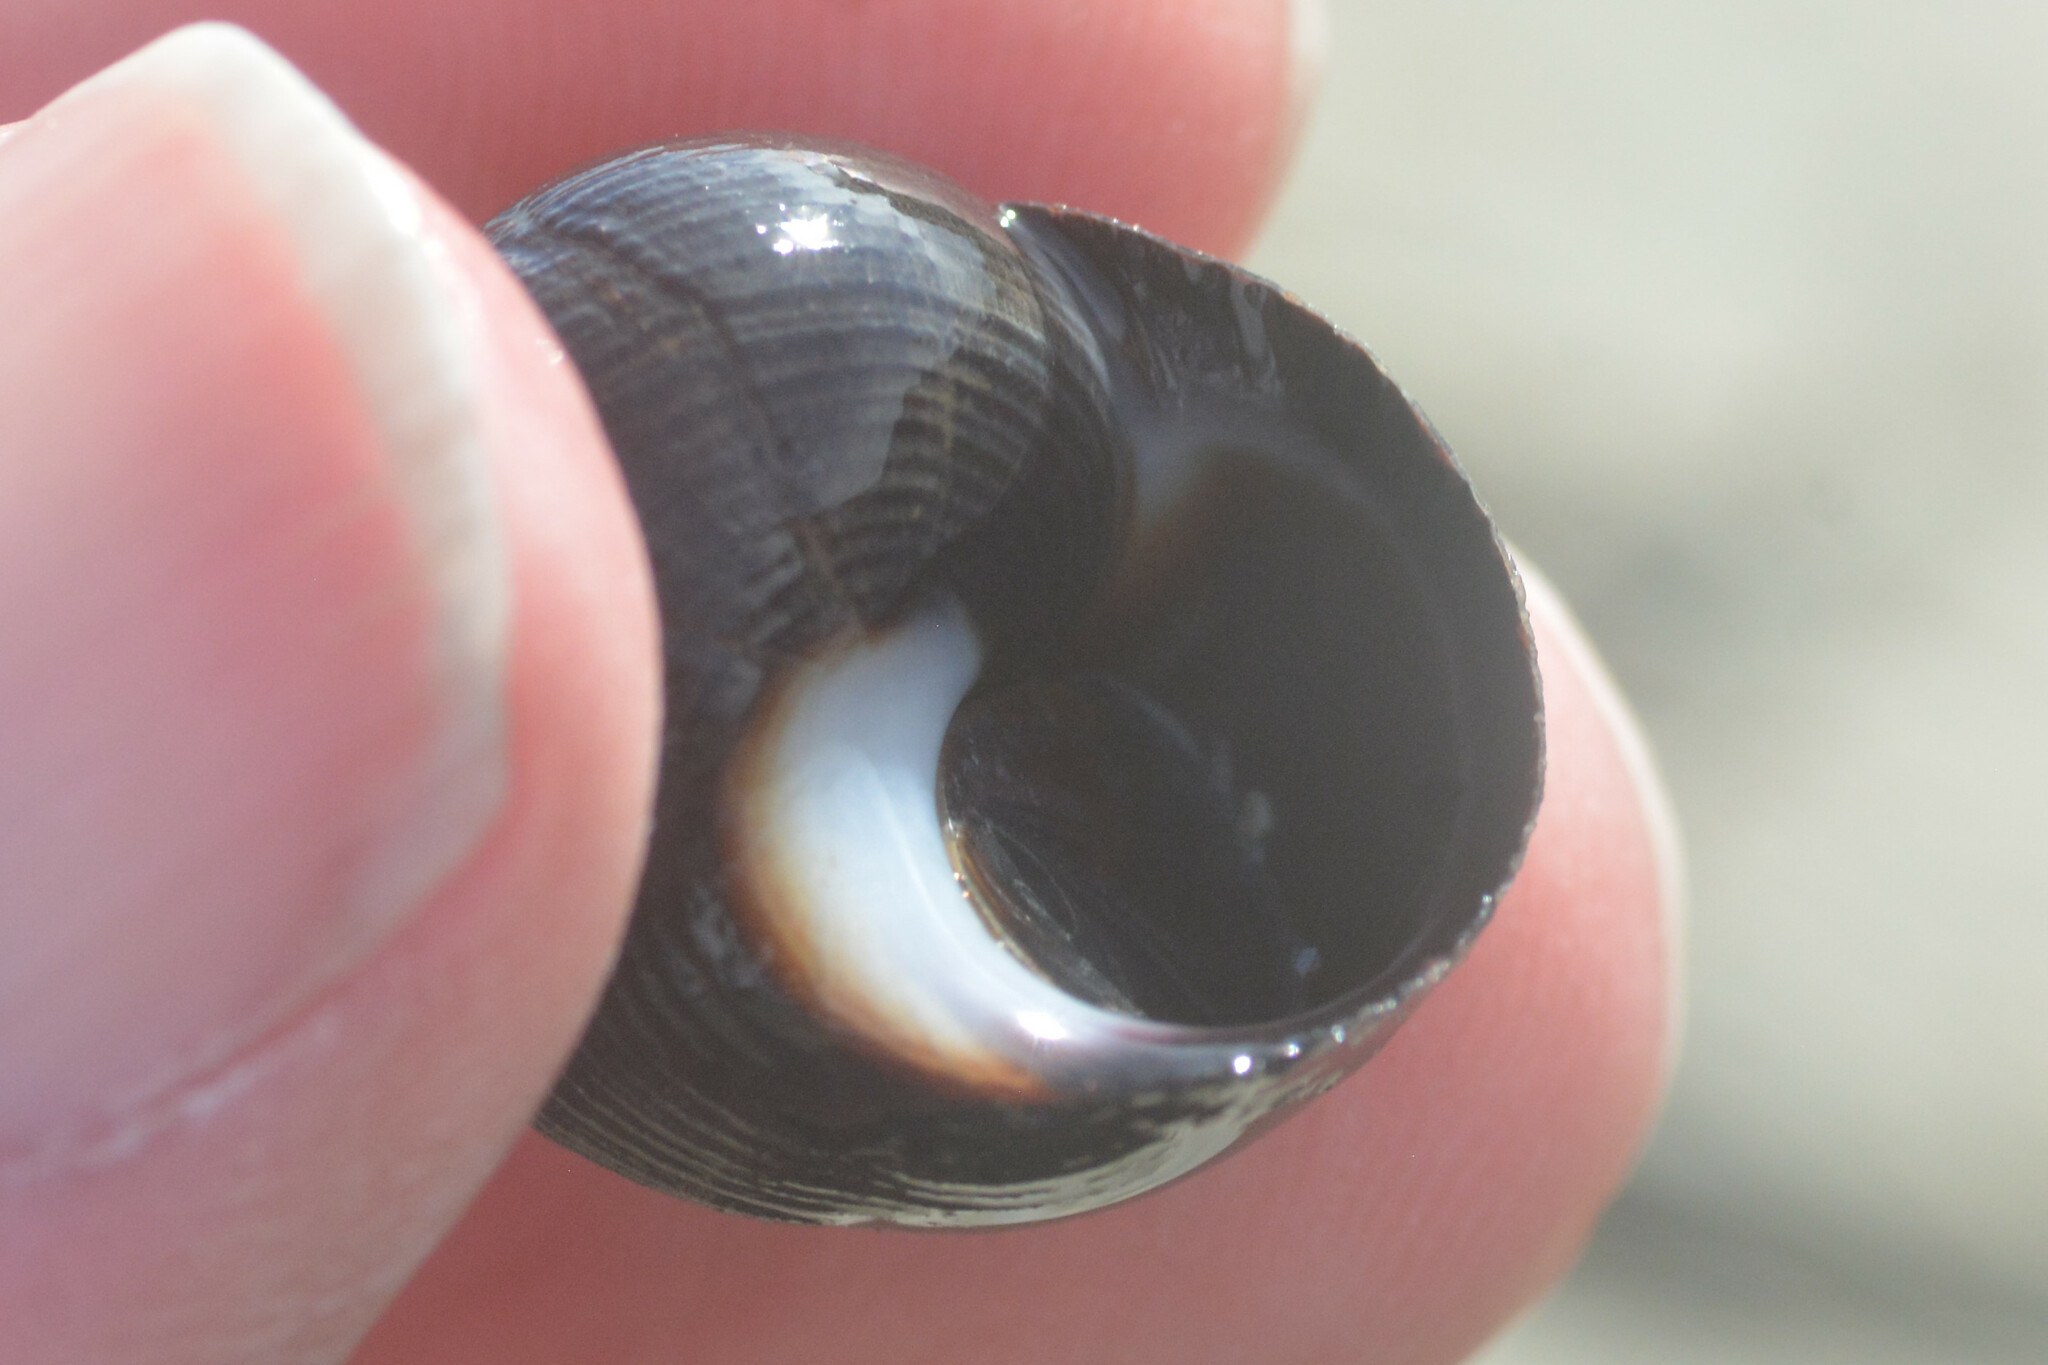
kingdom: Animalia
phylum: Mollusca
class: Gastropoda
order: Littorinimorpha
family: Littorinidae
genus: Littorina
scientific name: Littorina littorea
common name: Common periwinkle
